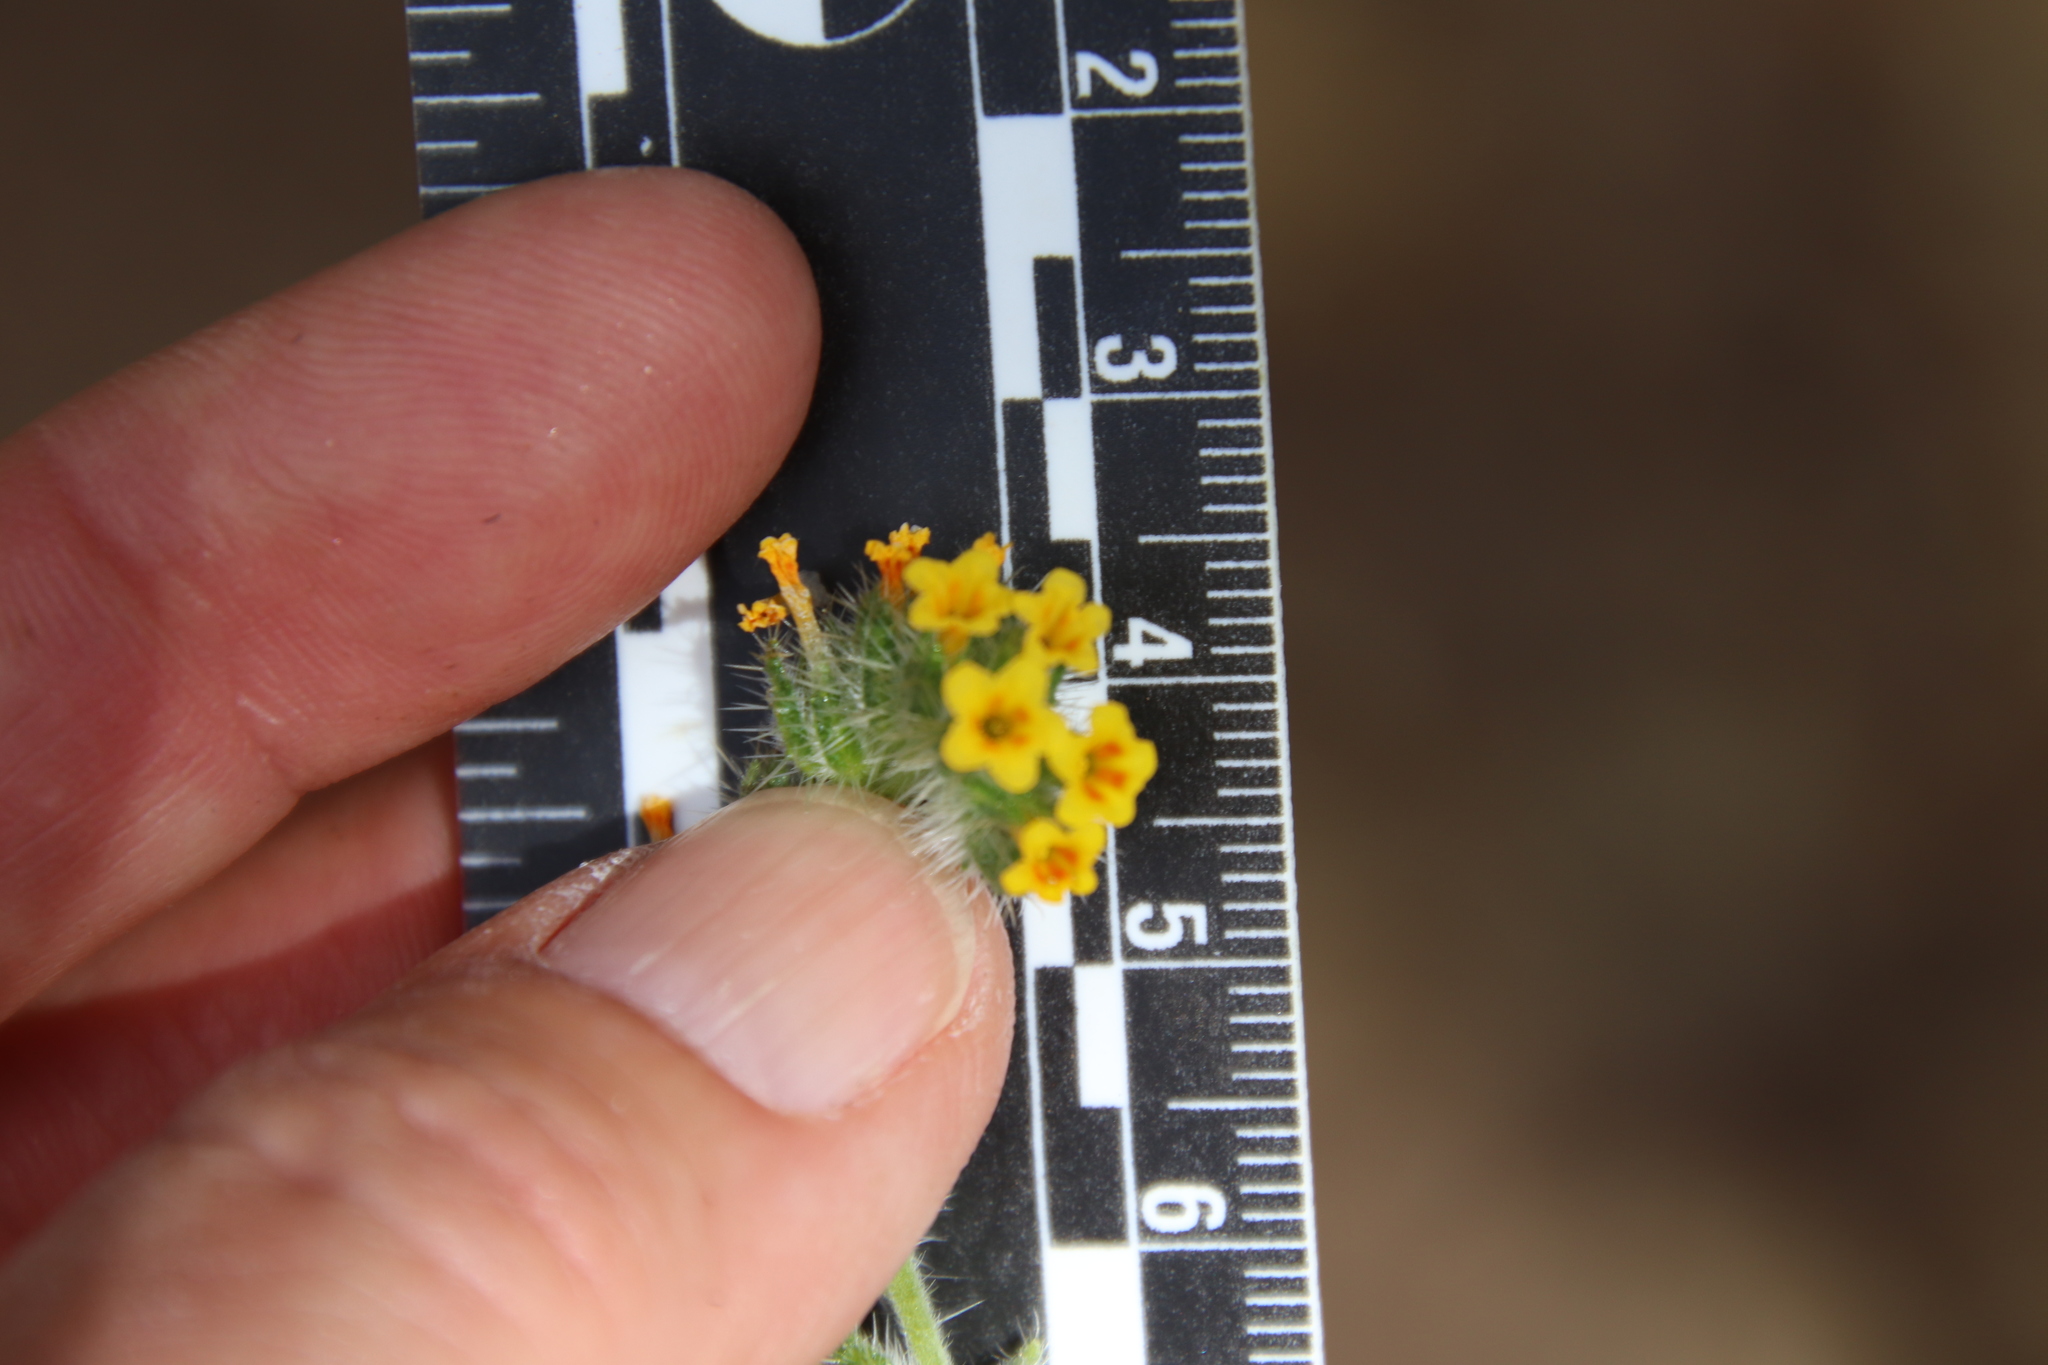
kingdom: Plantae
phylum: Tracheophyta
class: Magnoliopsida
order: Boraginales
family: Boraginaceae
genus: Amsinckia
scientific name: Amsinckia menziesii
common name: Menzies' fiddleneck
